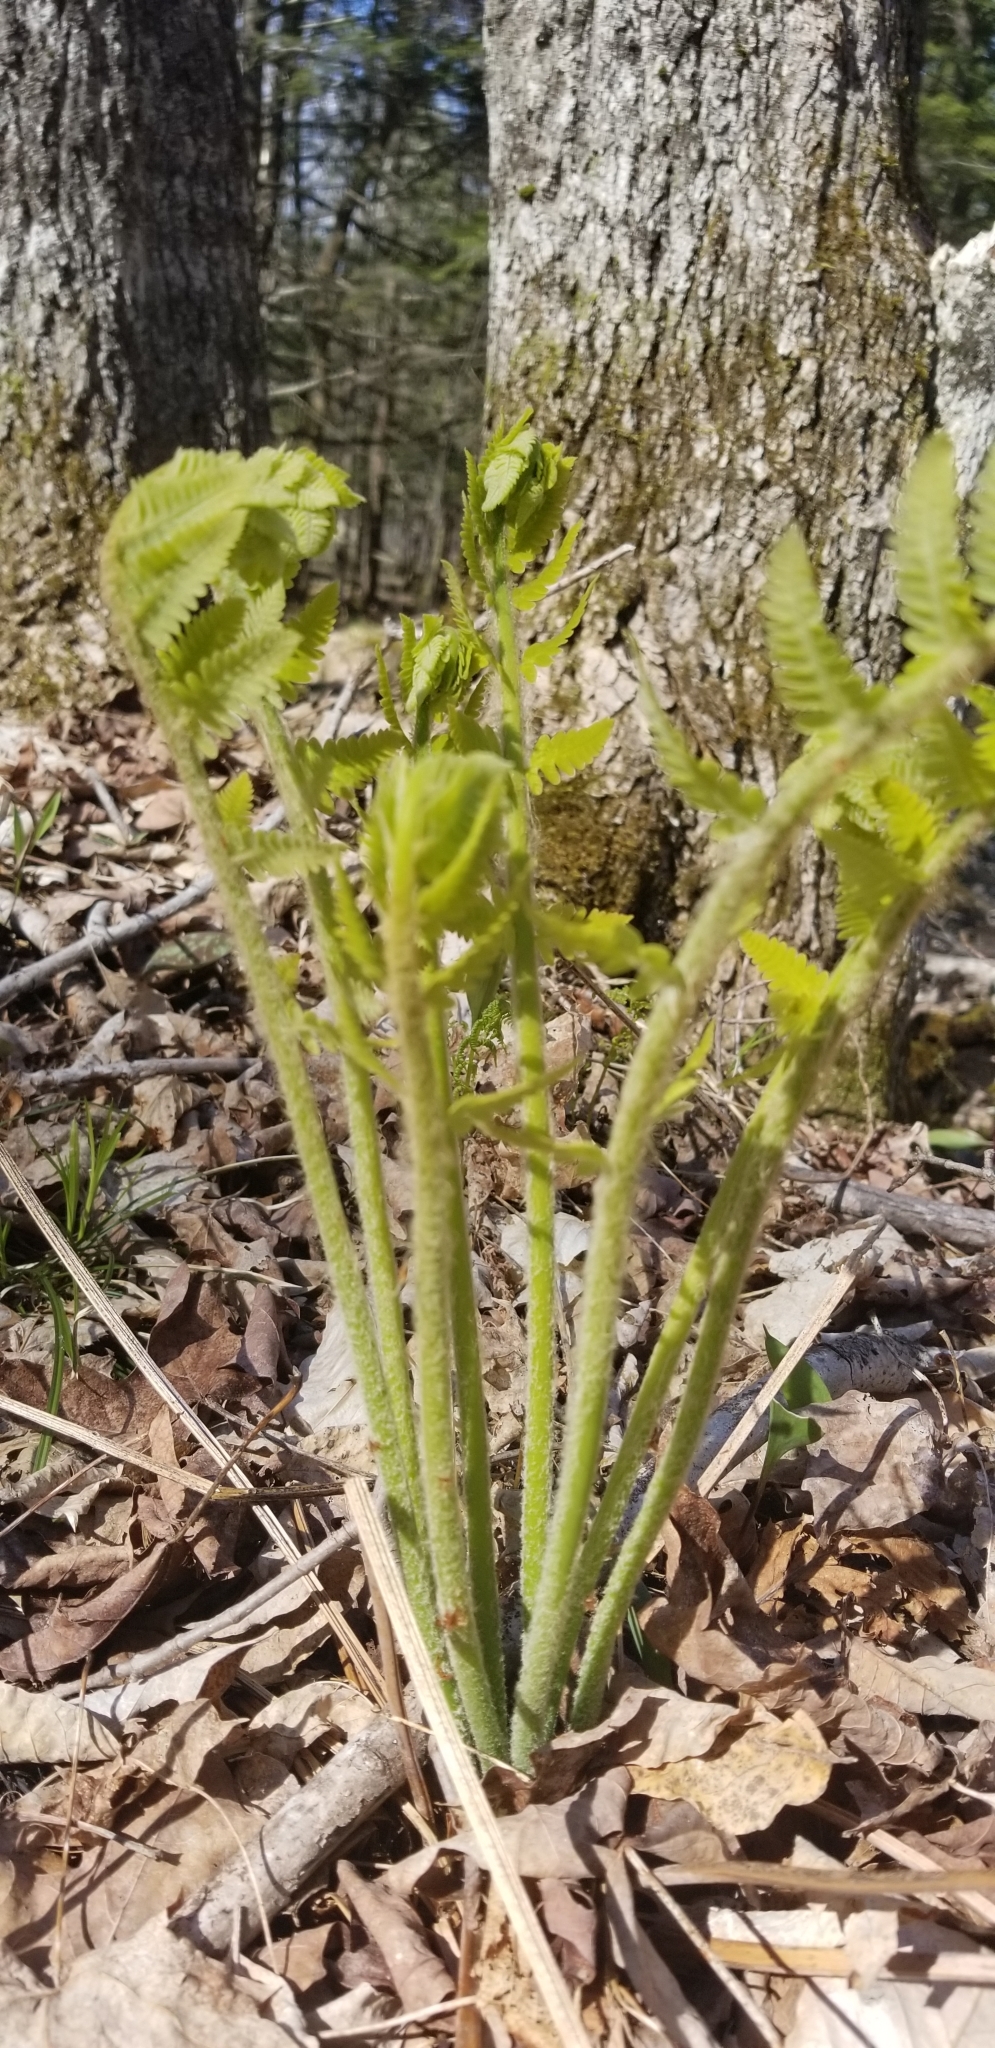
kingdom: Plantae
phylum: Tracheophyta
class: Polypodiopsida
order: Osmundales
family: Osmundaceae
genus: Claytosmunda
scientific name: Claytosmunda claytoniana
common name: Clayton's fern
